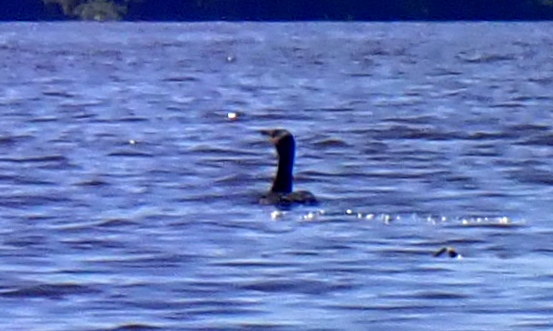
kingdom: Animalia
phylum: Chordata
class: Aves
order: Suliformes
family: Phalacrocoracidae
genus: Phalacrocorax
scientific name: Phalacrocorax auritus
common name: Double-crested cormorant
